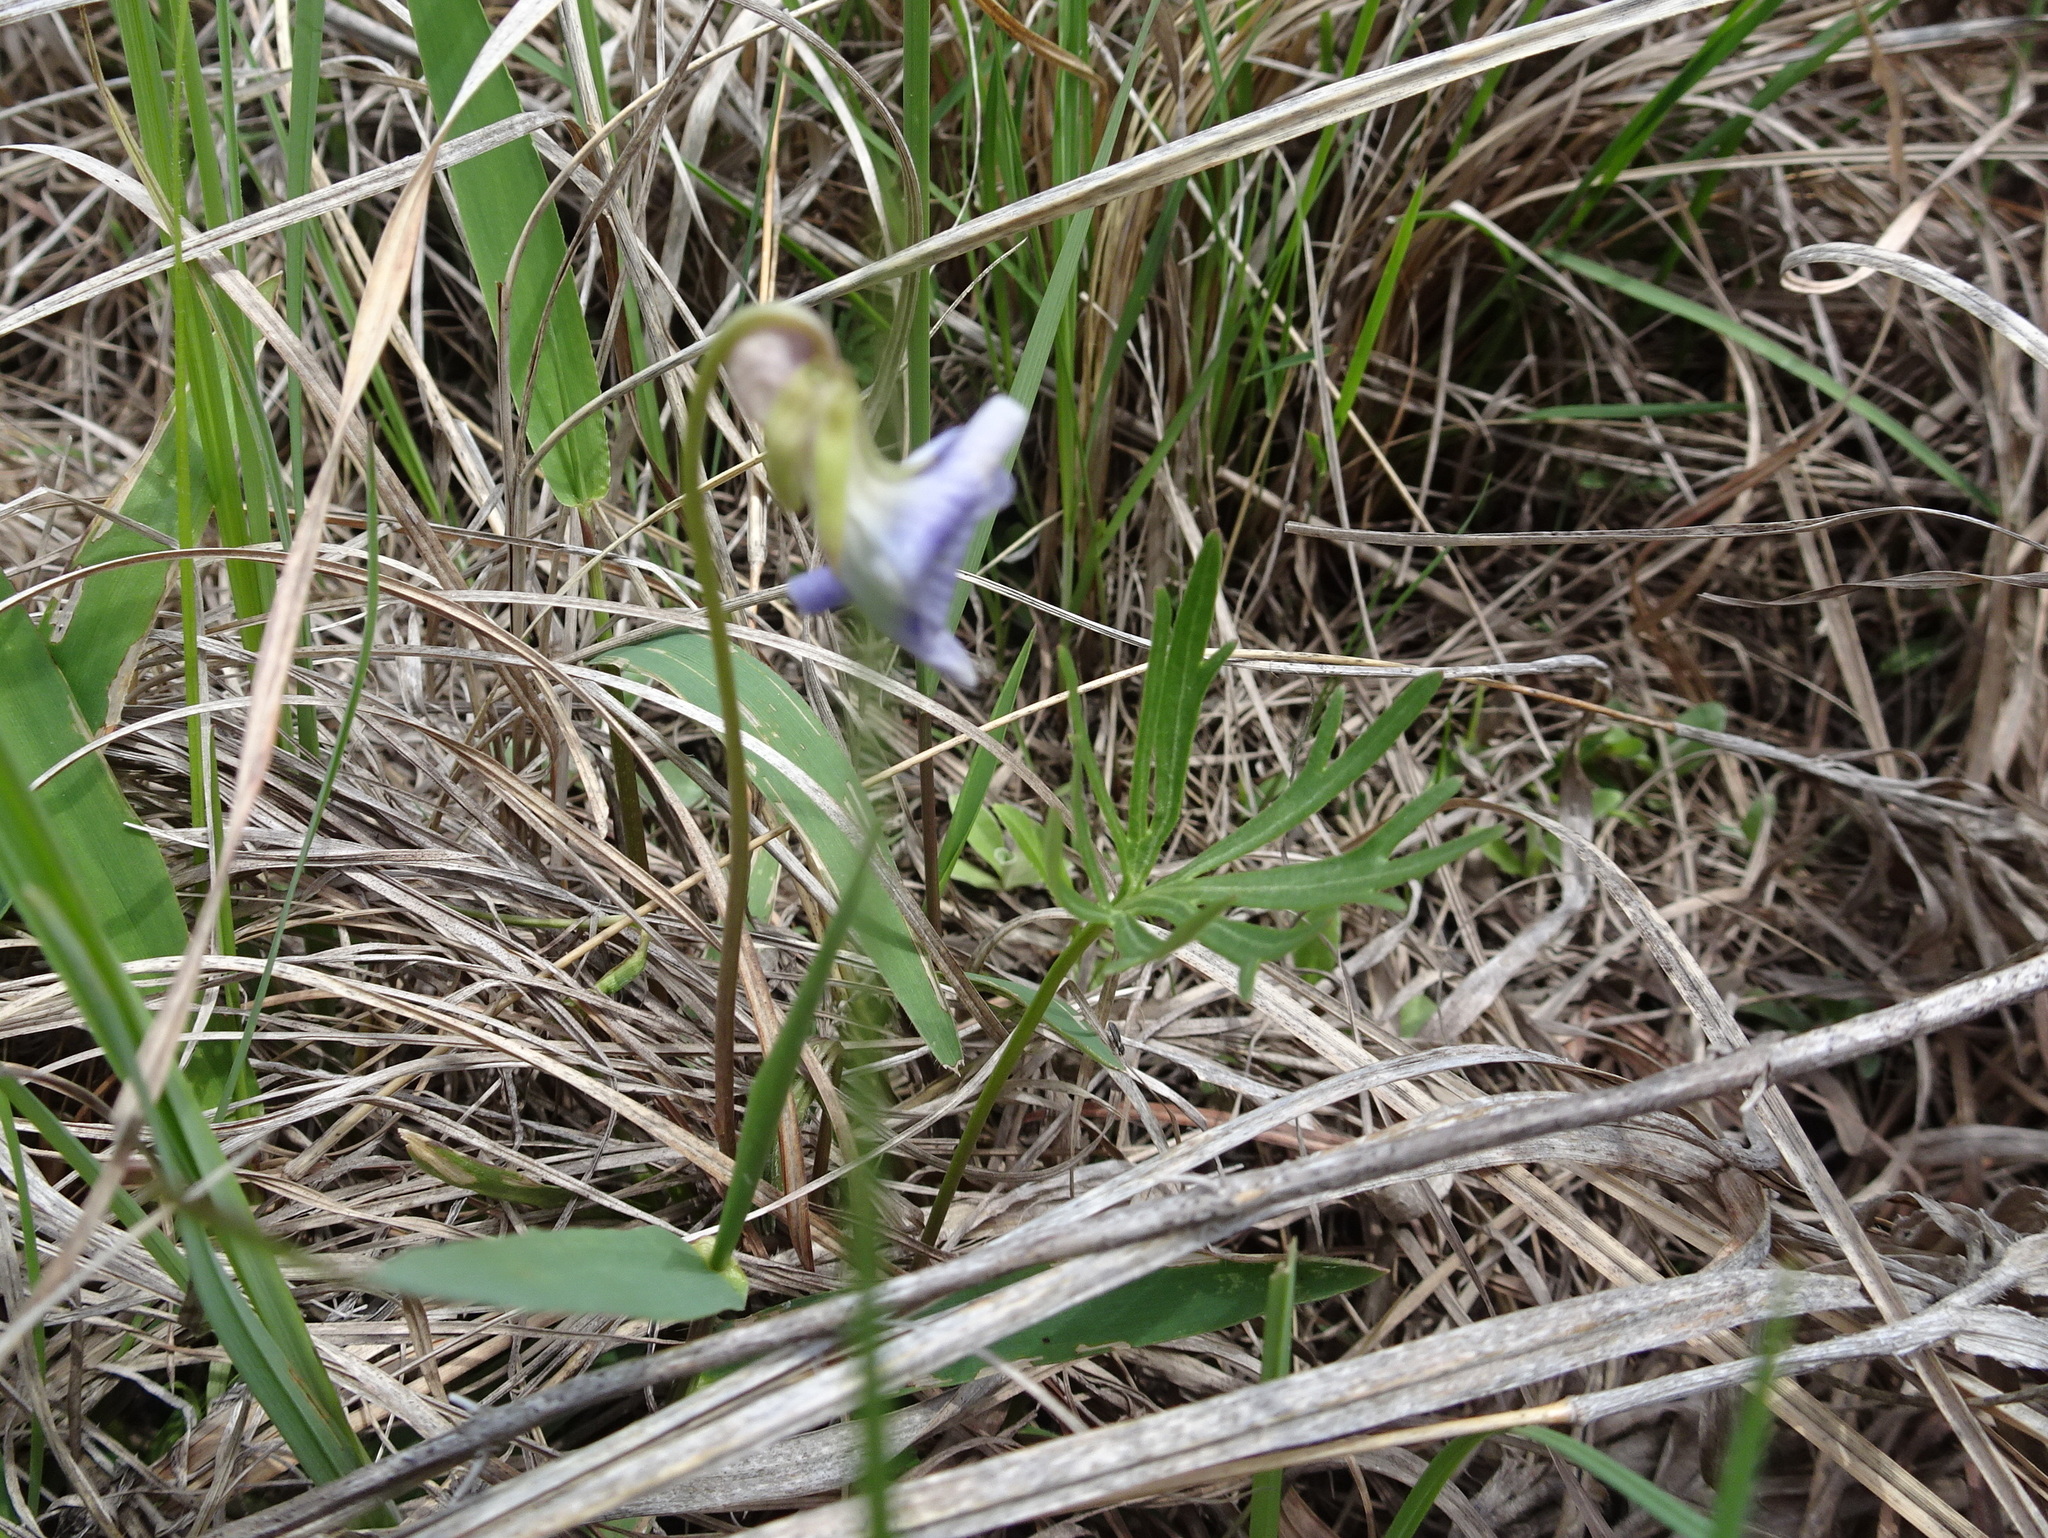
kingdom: Plantae
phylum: Tracheophyta
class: Magnoliopsida
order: Malpighiales
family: Violaceae
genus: Viola
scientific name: Viola pedatifida
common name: Prairie violet
